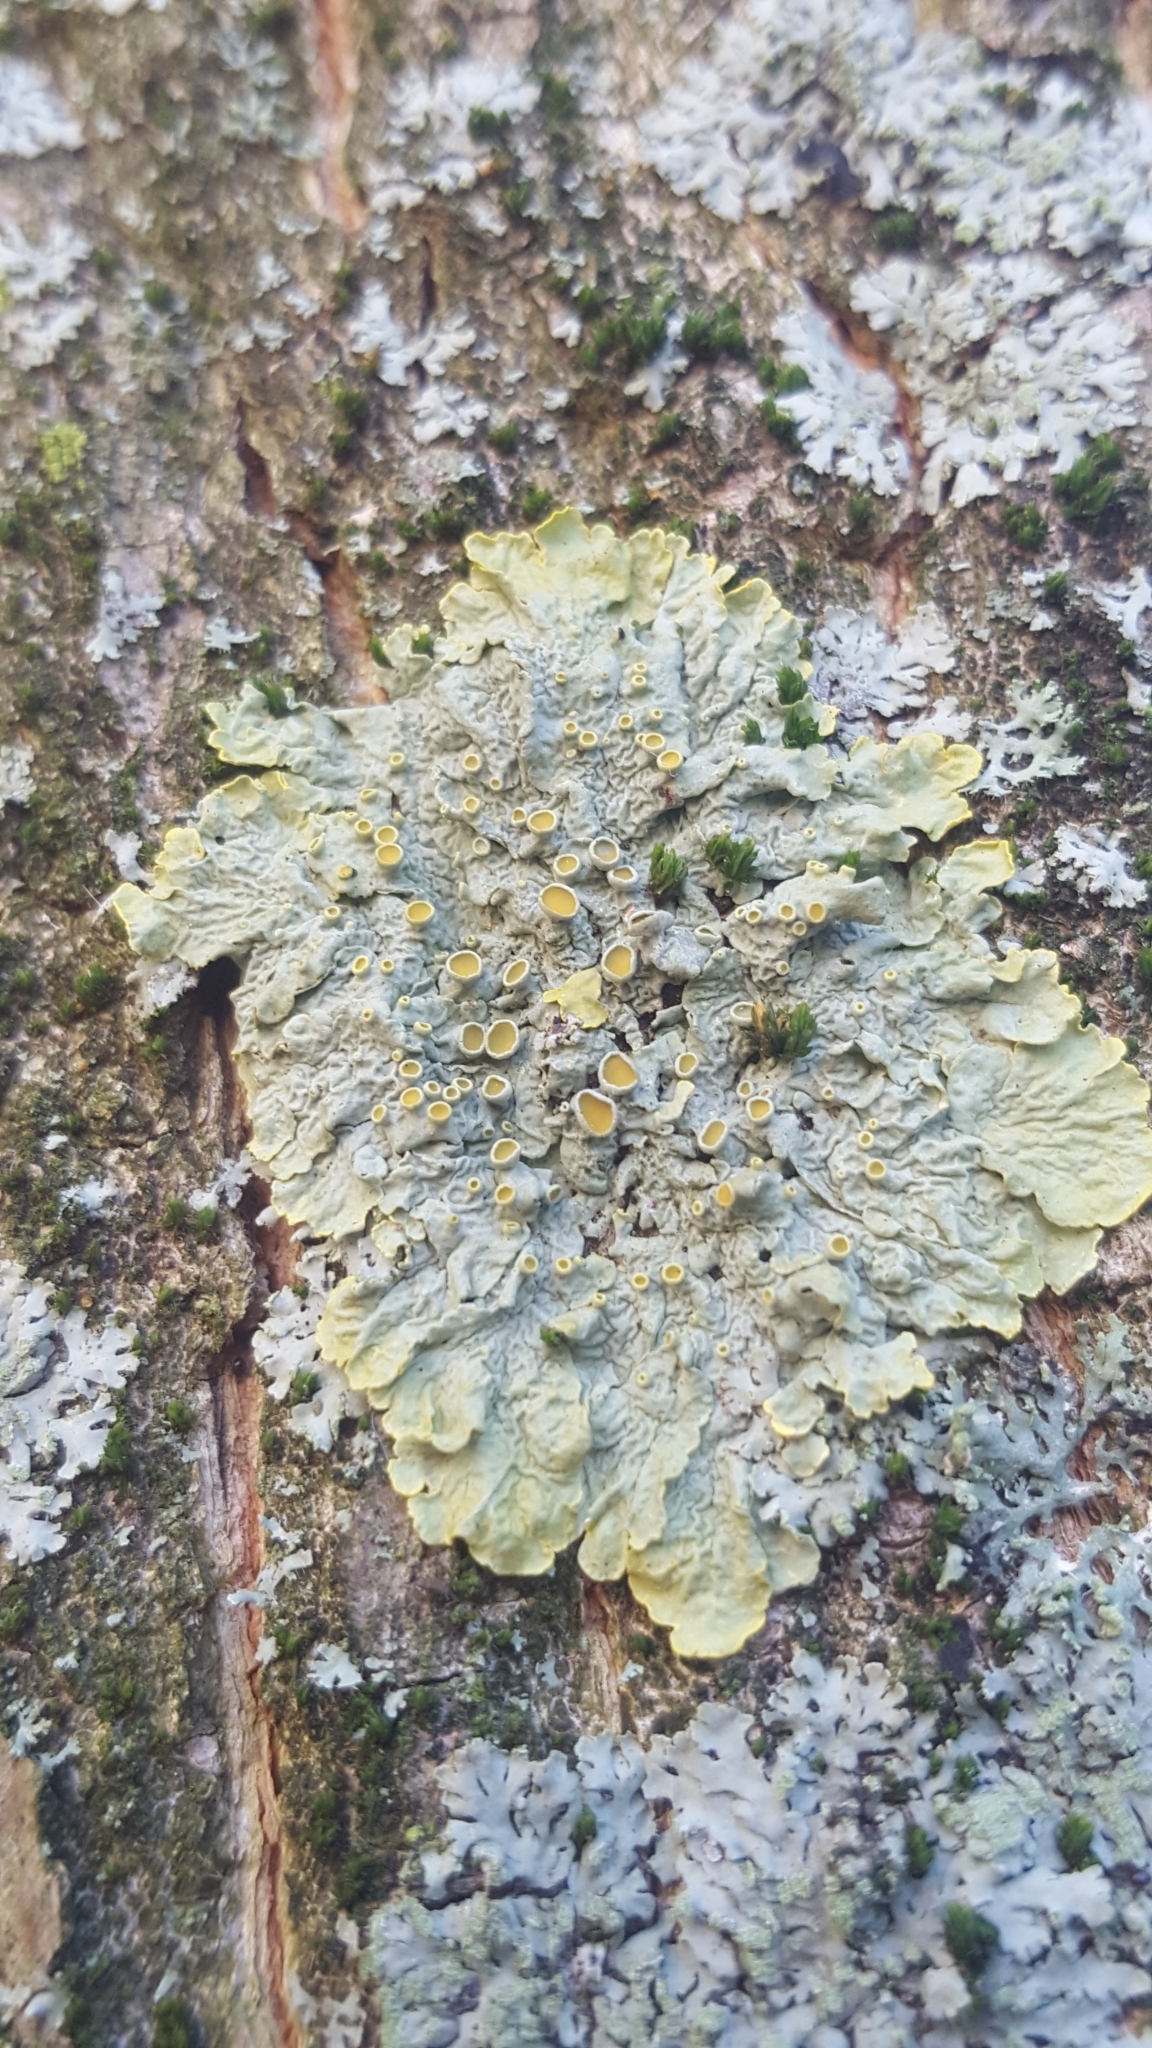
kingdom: Fungi
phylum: Ascomycota
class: Lecanoromycetes
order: Teloschistales
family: Teloschistaceae
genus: Xanthoria
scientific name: Xanthoria parietina
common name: Common orange lichen
